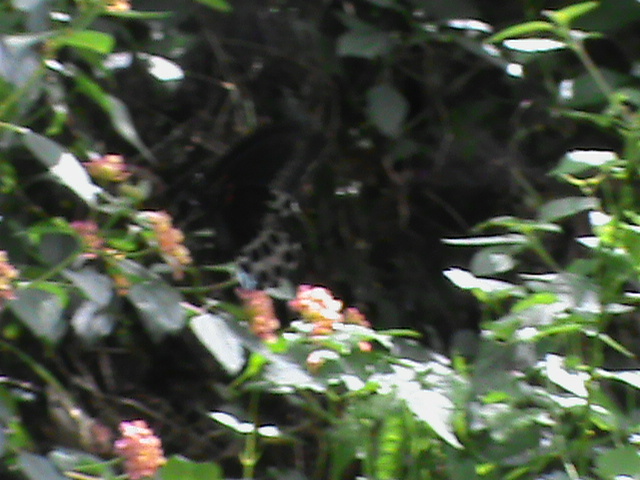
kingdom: Animalia
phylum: Arthropoda
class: Insecta
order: Lepidoptera
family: Papilionidae
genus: Papilio
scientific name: Papilio memnon
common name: Great mormon
